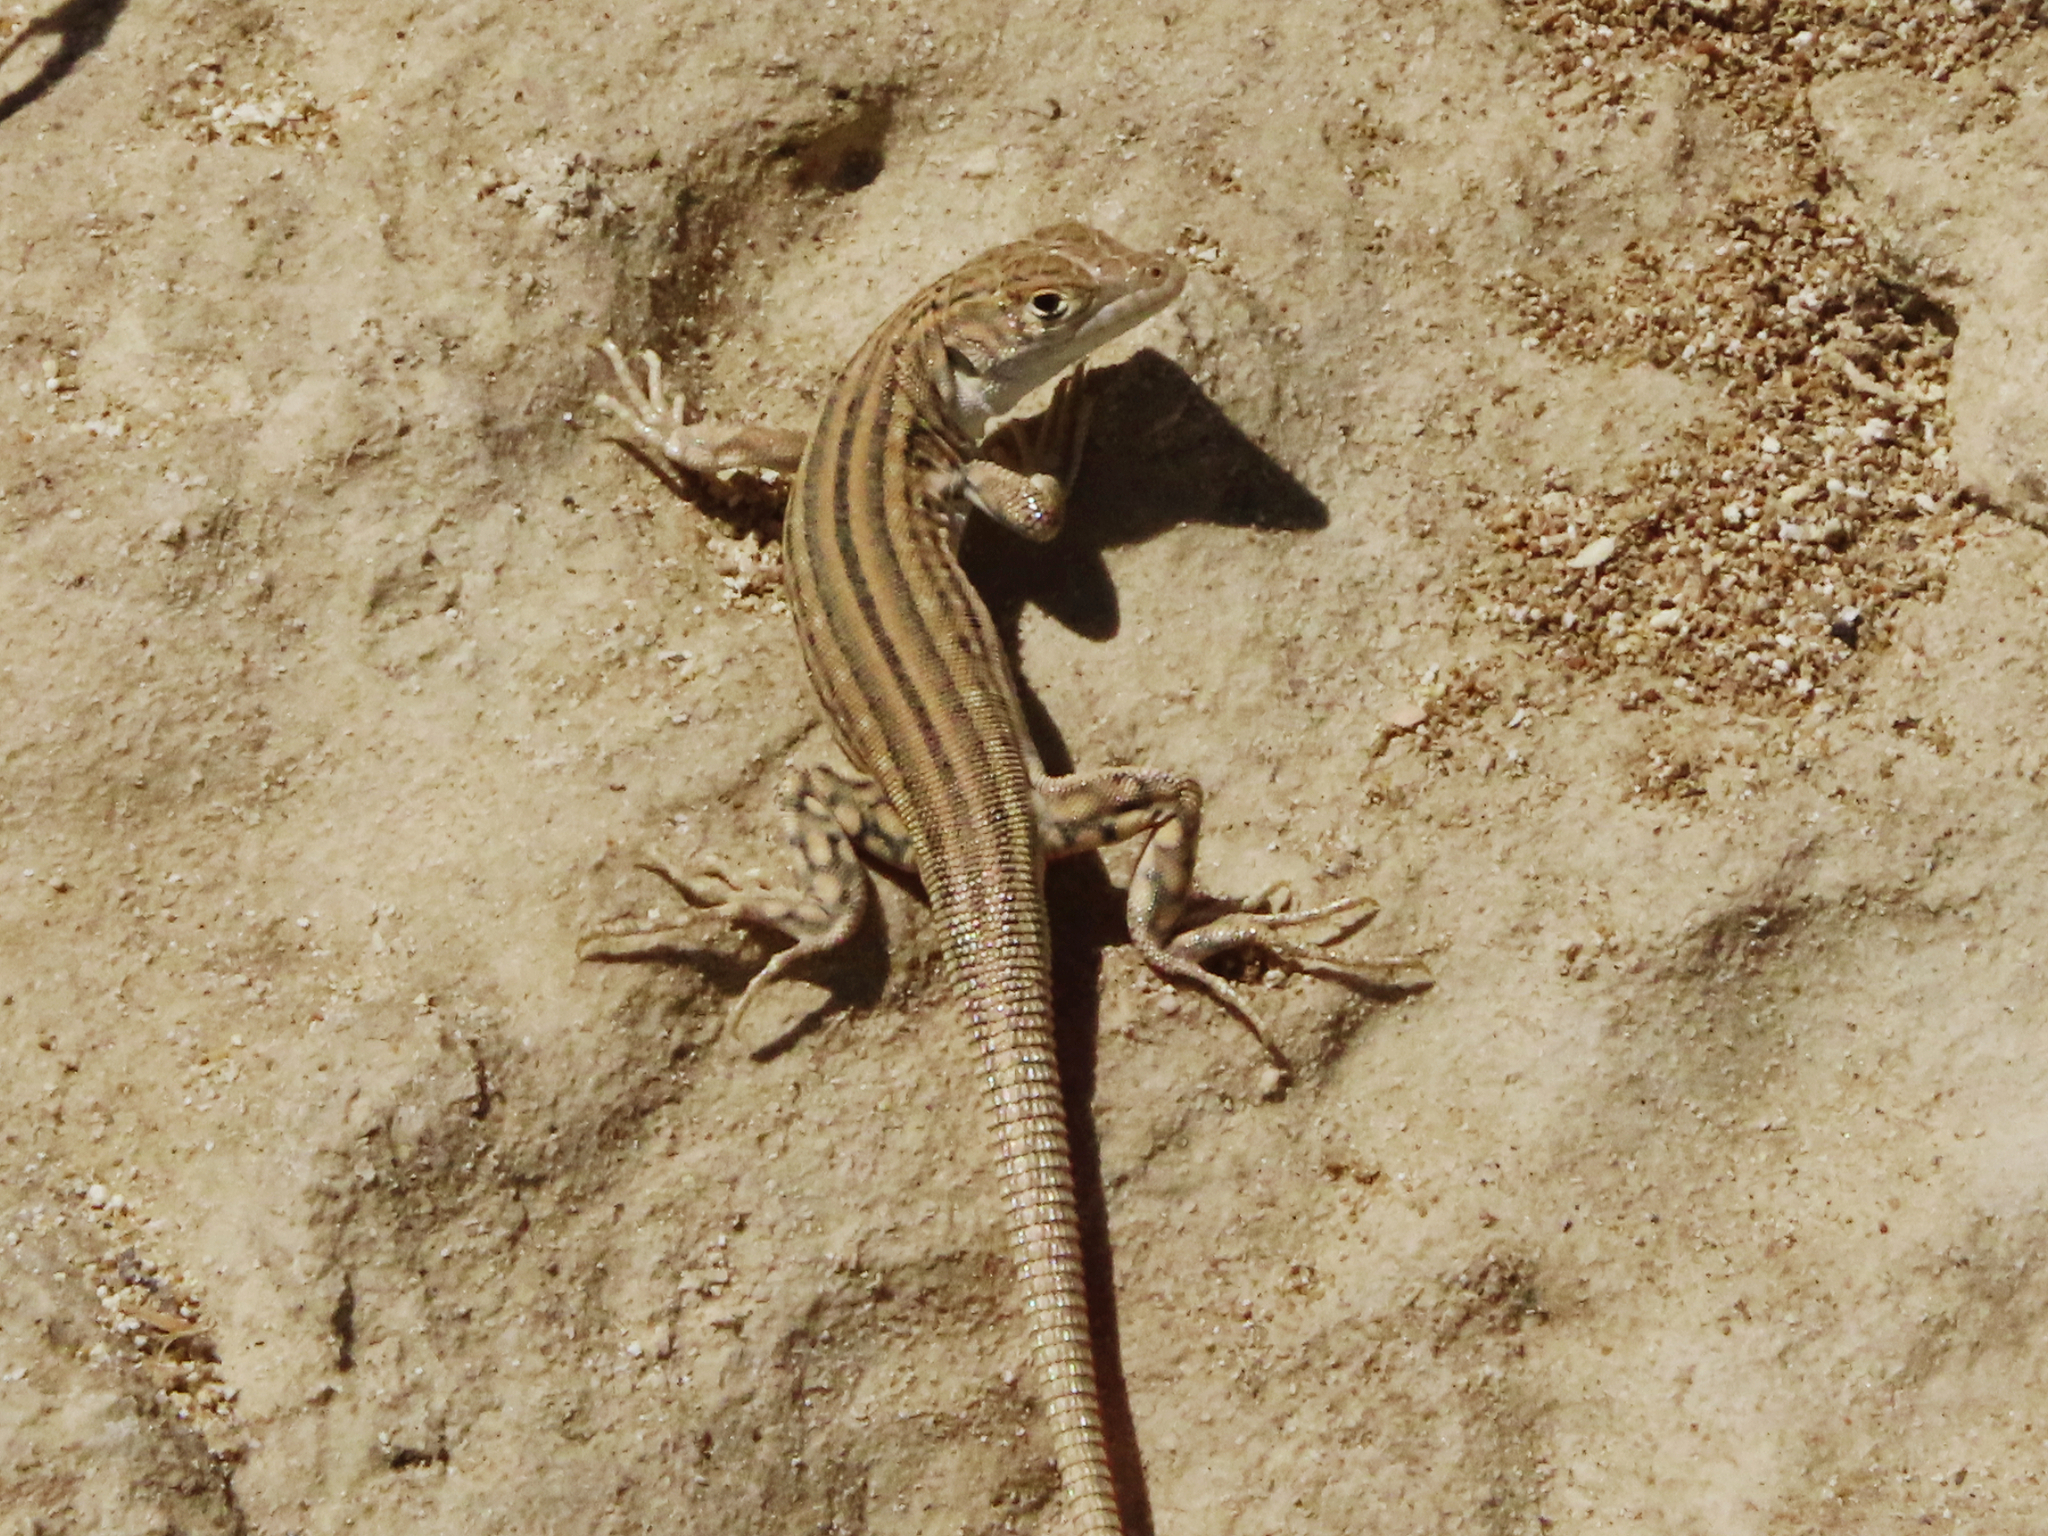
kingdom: Animalia
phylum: Chordata
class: Squamata
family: Lacertidae
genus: Eremias
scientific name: Eremias velox
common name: Central asian racerunner
